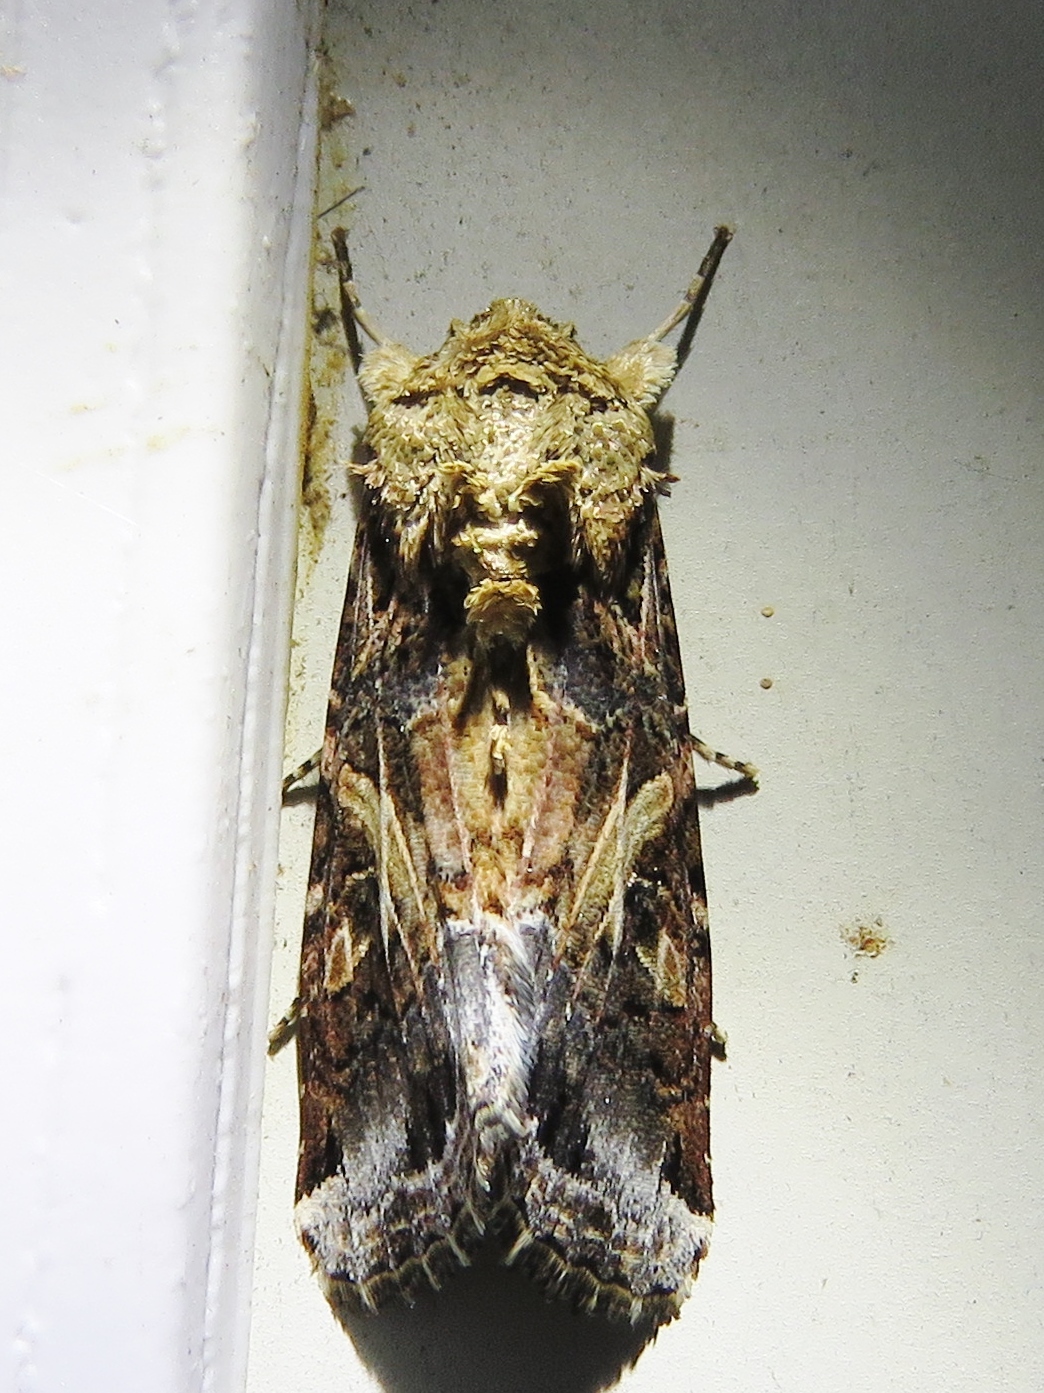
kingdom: Animalia
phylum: Arthropoda
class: Insecta
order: Lepidoptera
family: Noctuidae
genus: Spodoptera
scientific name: Spodoptera ornithogalli
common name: Yellow-striped armyworm
